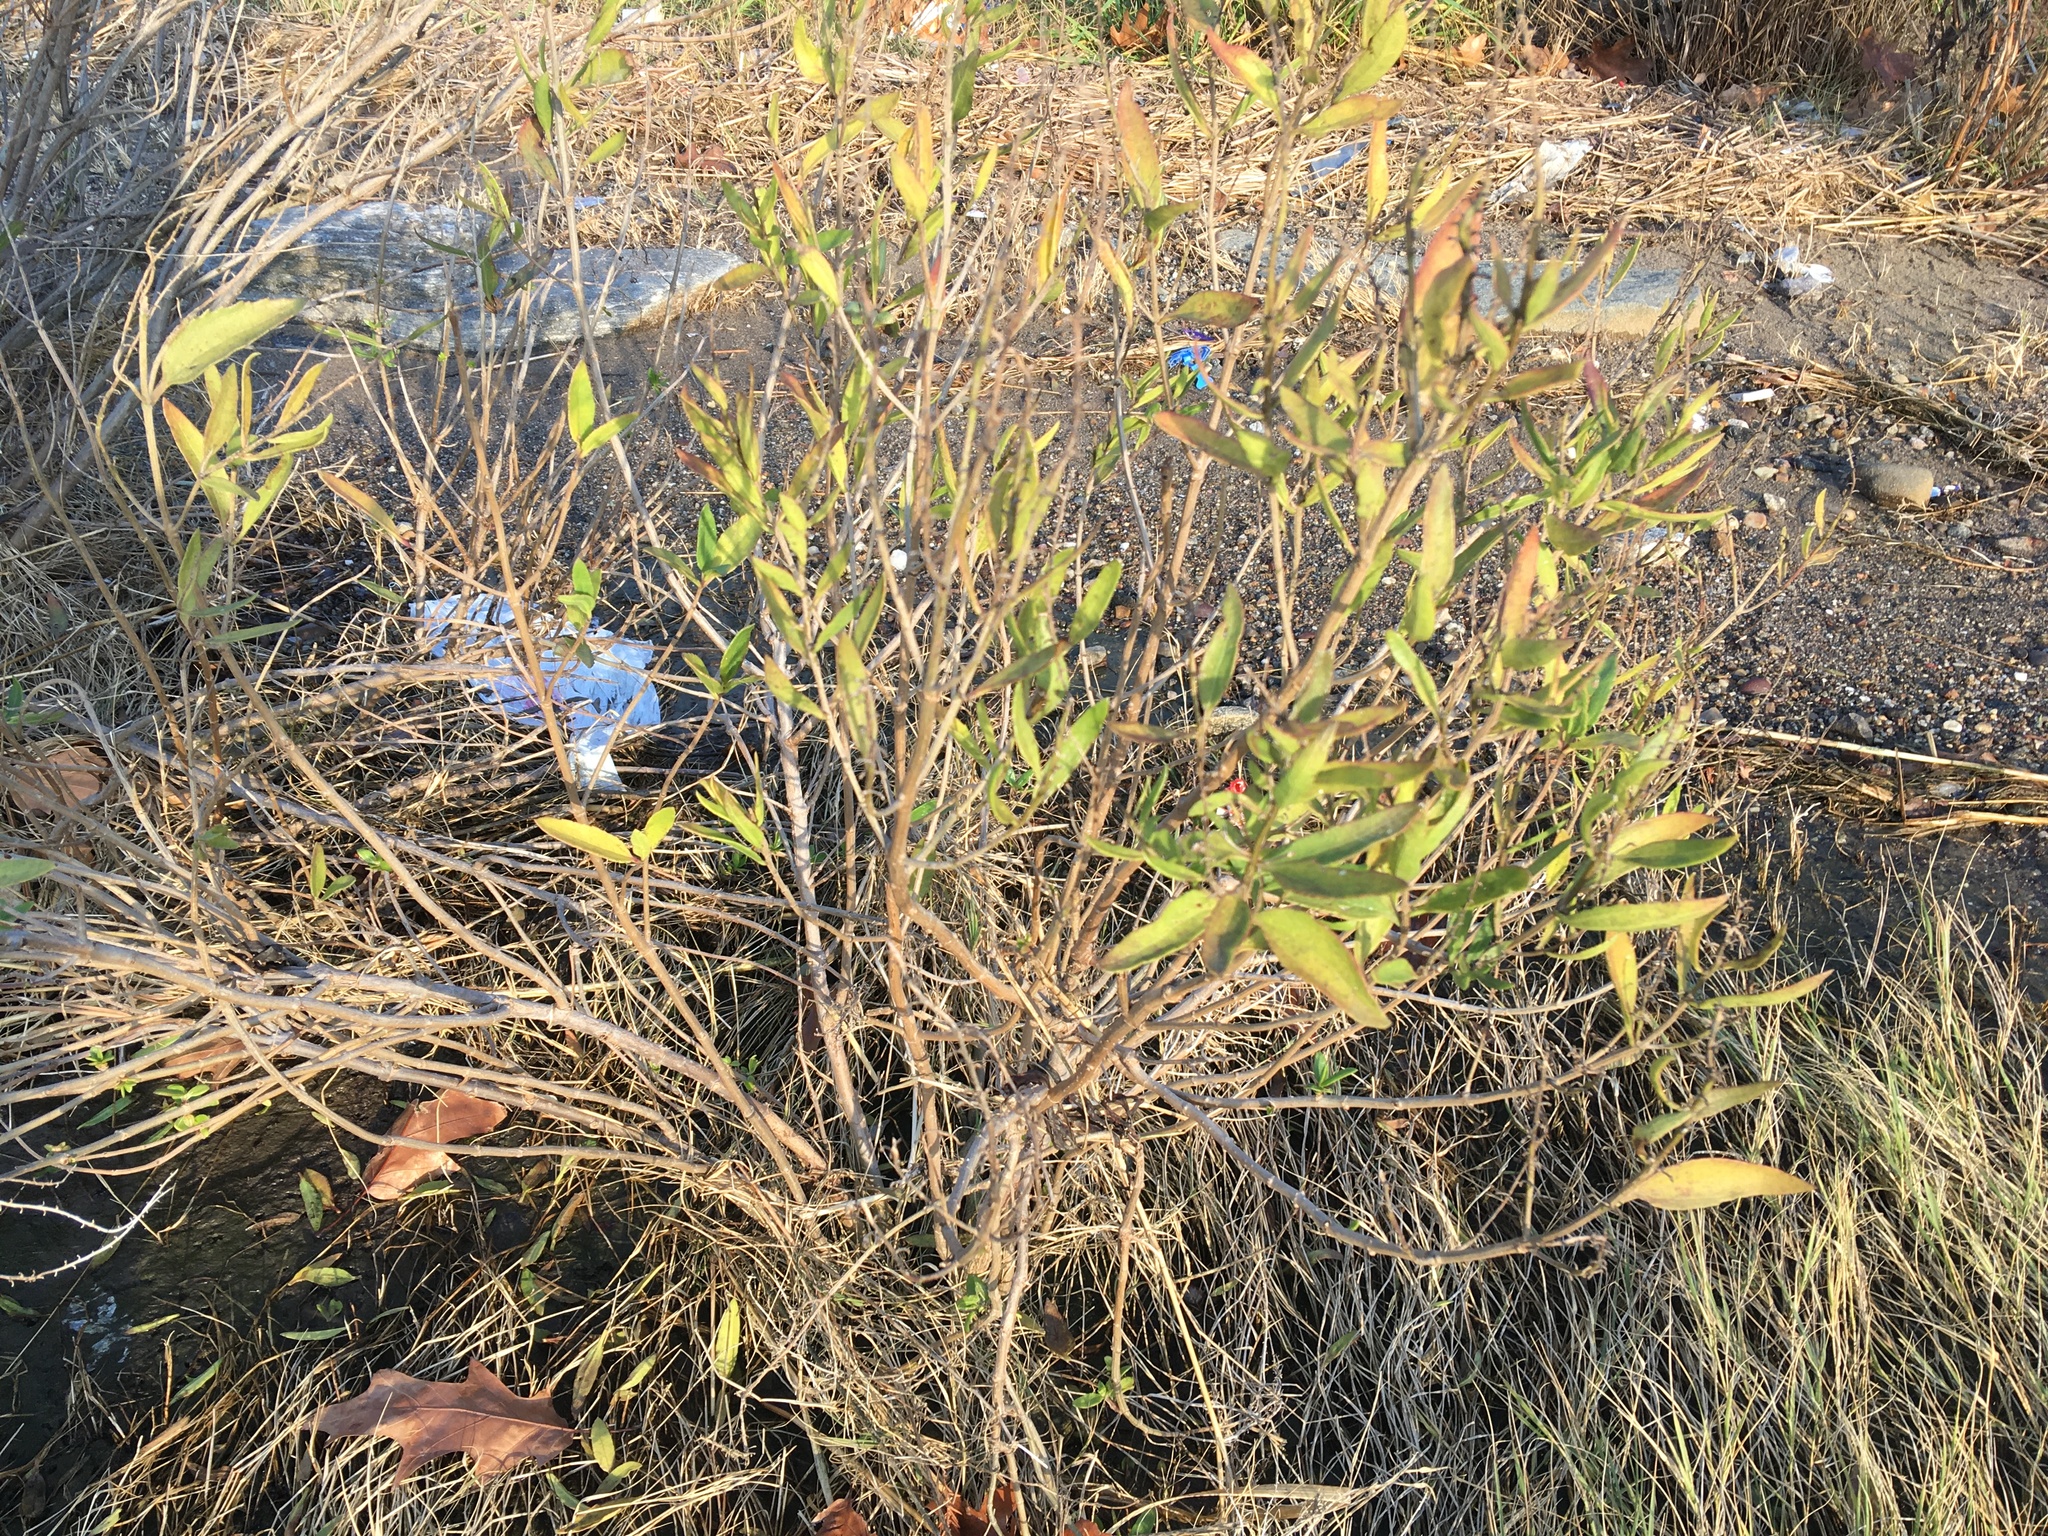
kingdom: Plantae
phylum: Tracheophyta
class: Magnoliopsida
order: Asterales
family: Asteraceae
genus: Iva
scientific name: Iva frutescens
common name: Big-leaved marsh-elder
